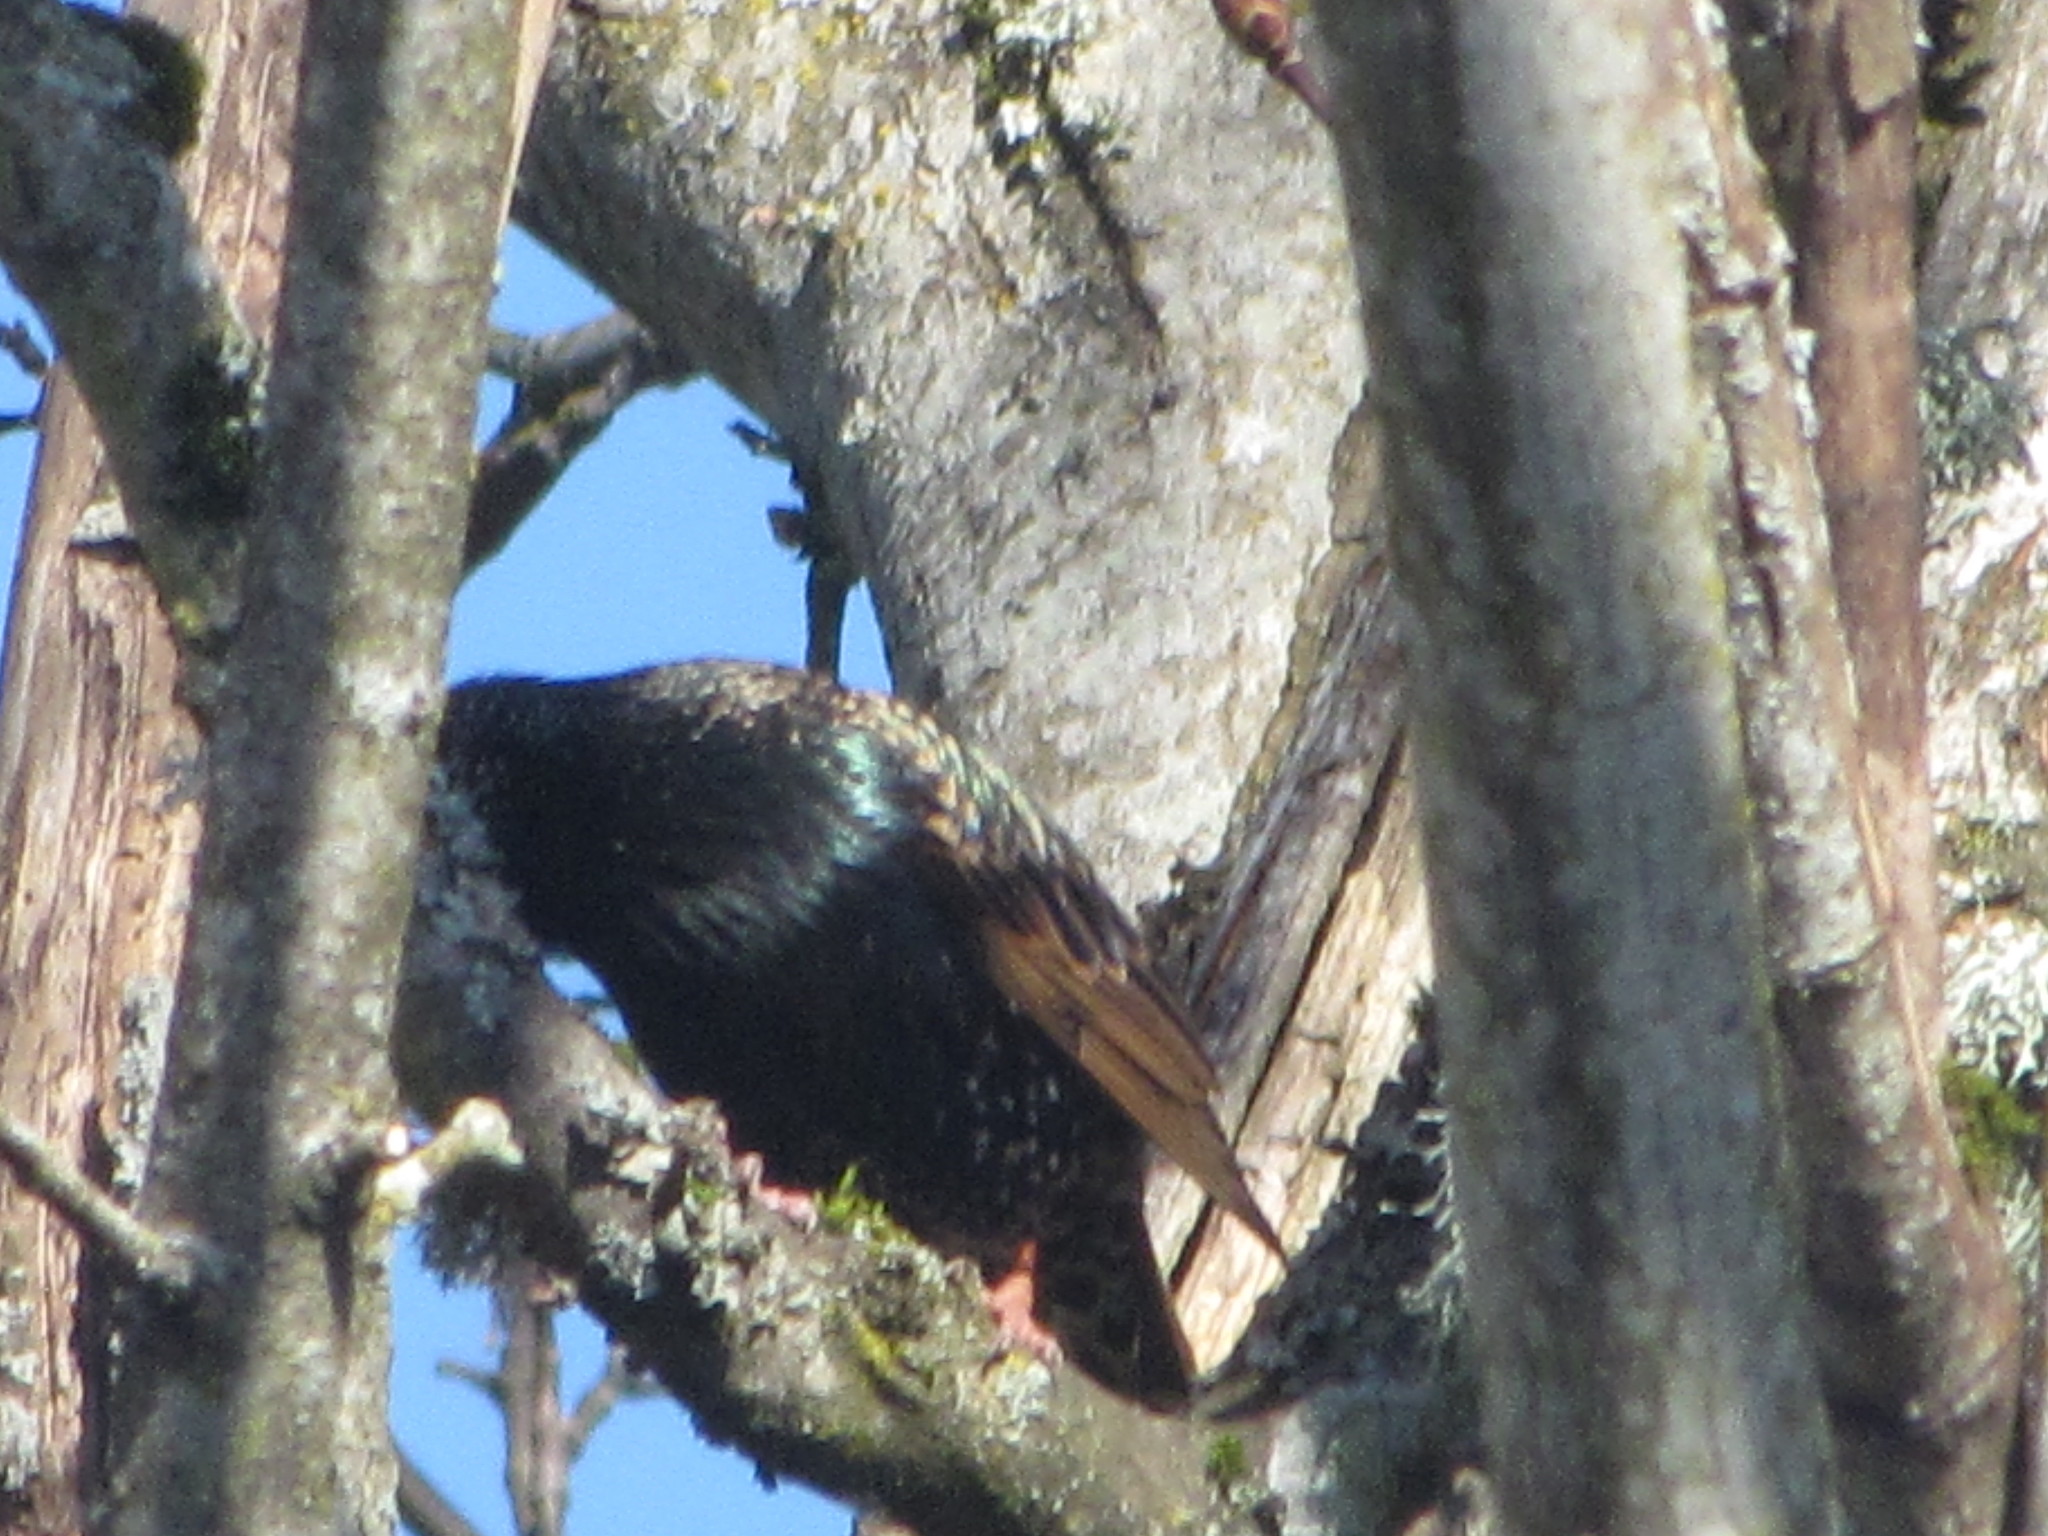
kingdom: Animalia
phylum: Chordata
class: Aves
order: Passeriformes
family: Sturnidae
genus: Sturnus
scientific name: Sturnus vulgaris
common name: Common starling
